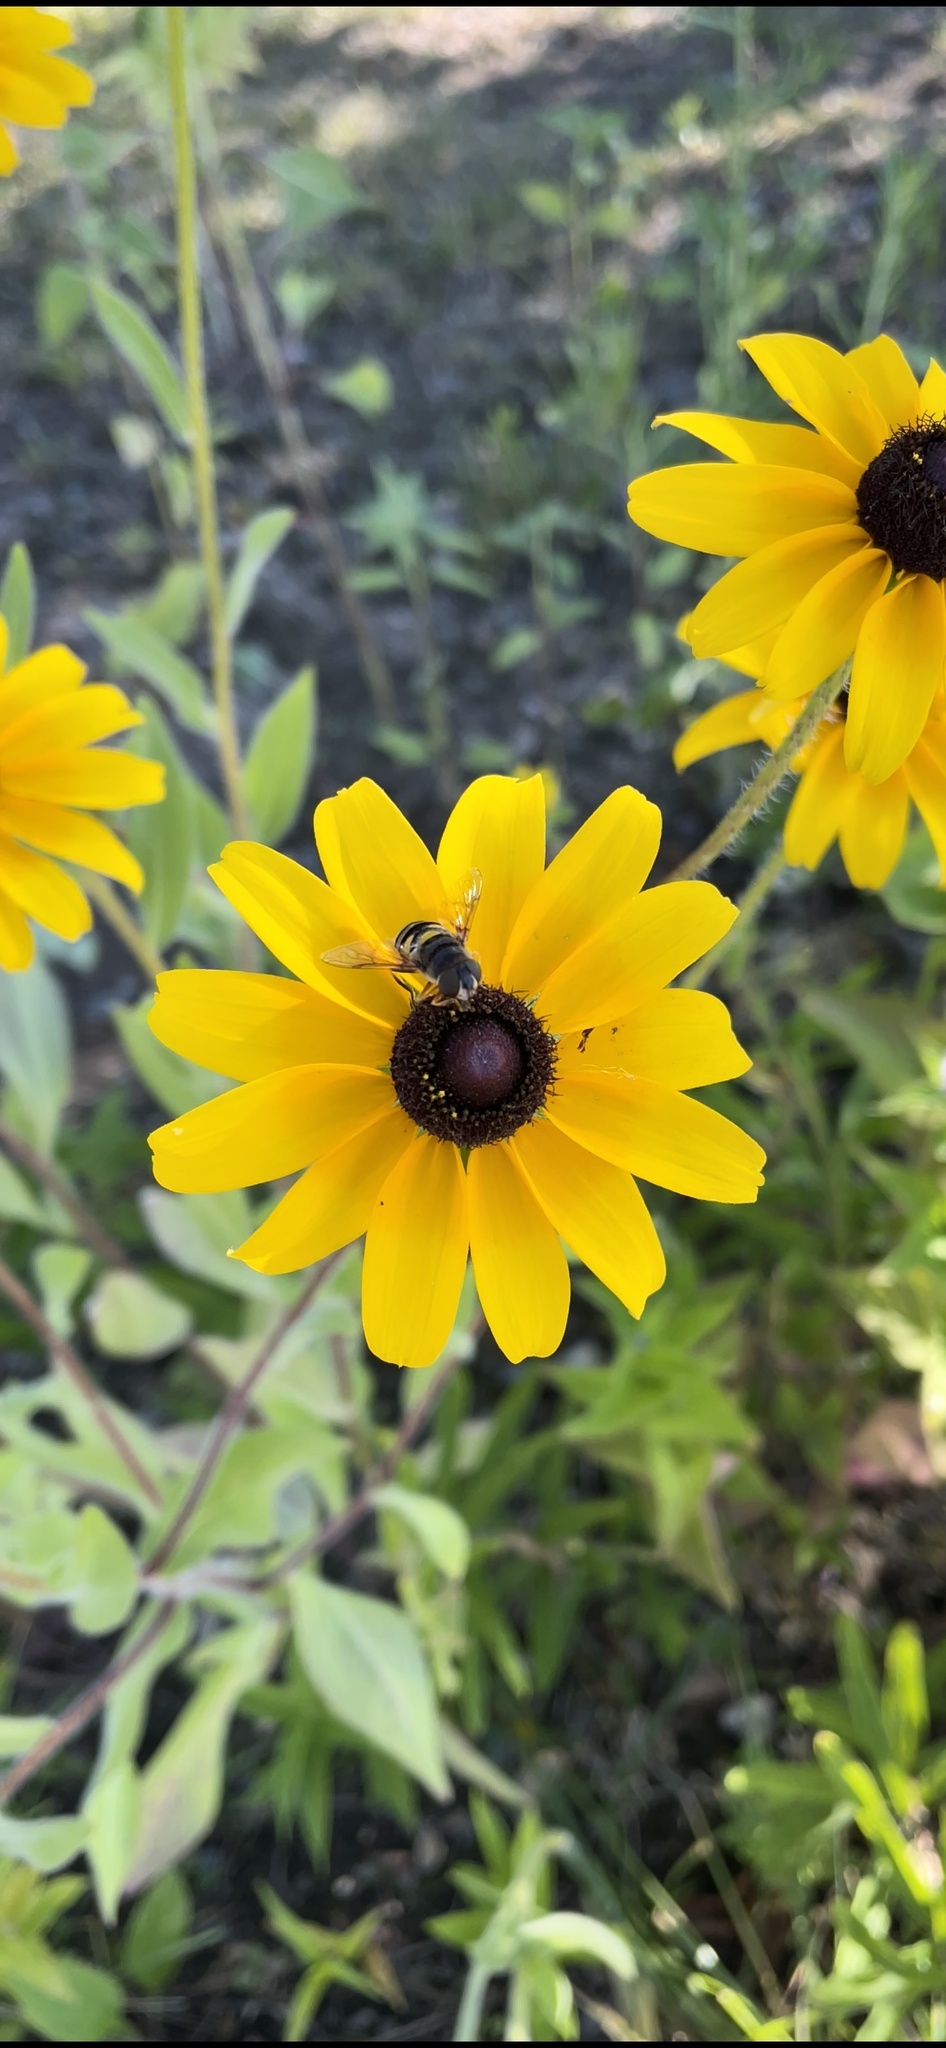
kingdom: Animalia
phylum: Arthropoda
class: Insecta
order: Diptera
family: Syrphidae
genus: Eristalis
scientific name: Eristalis transversa
